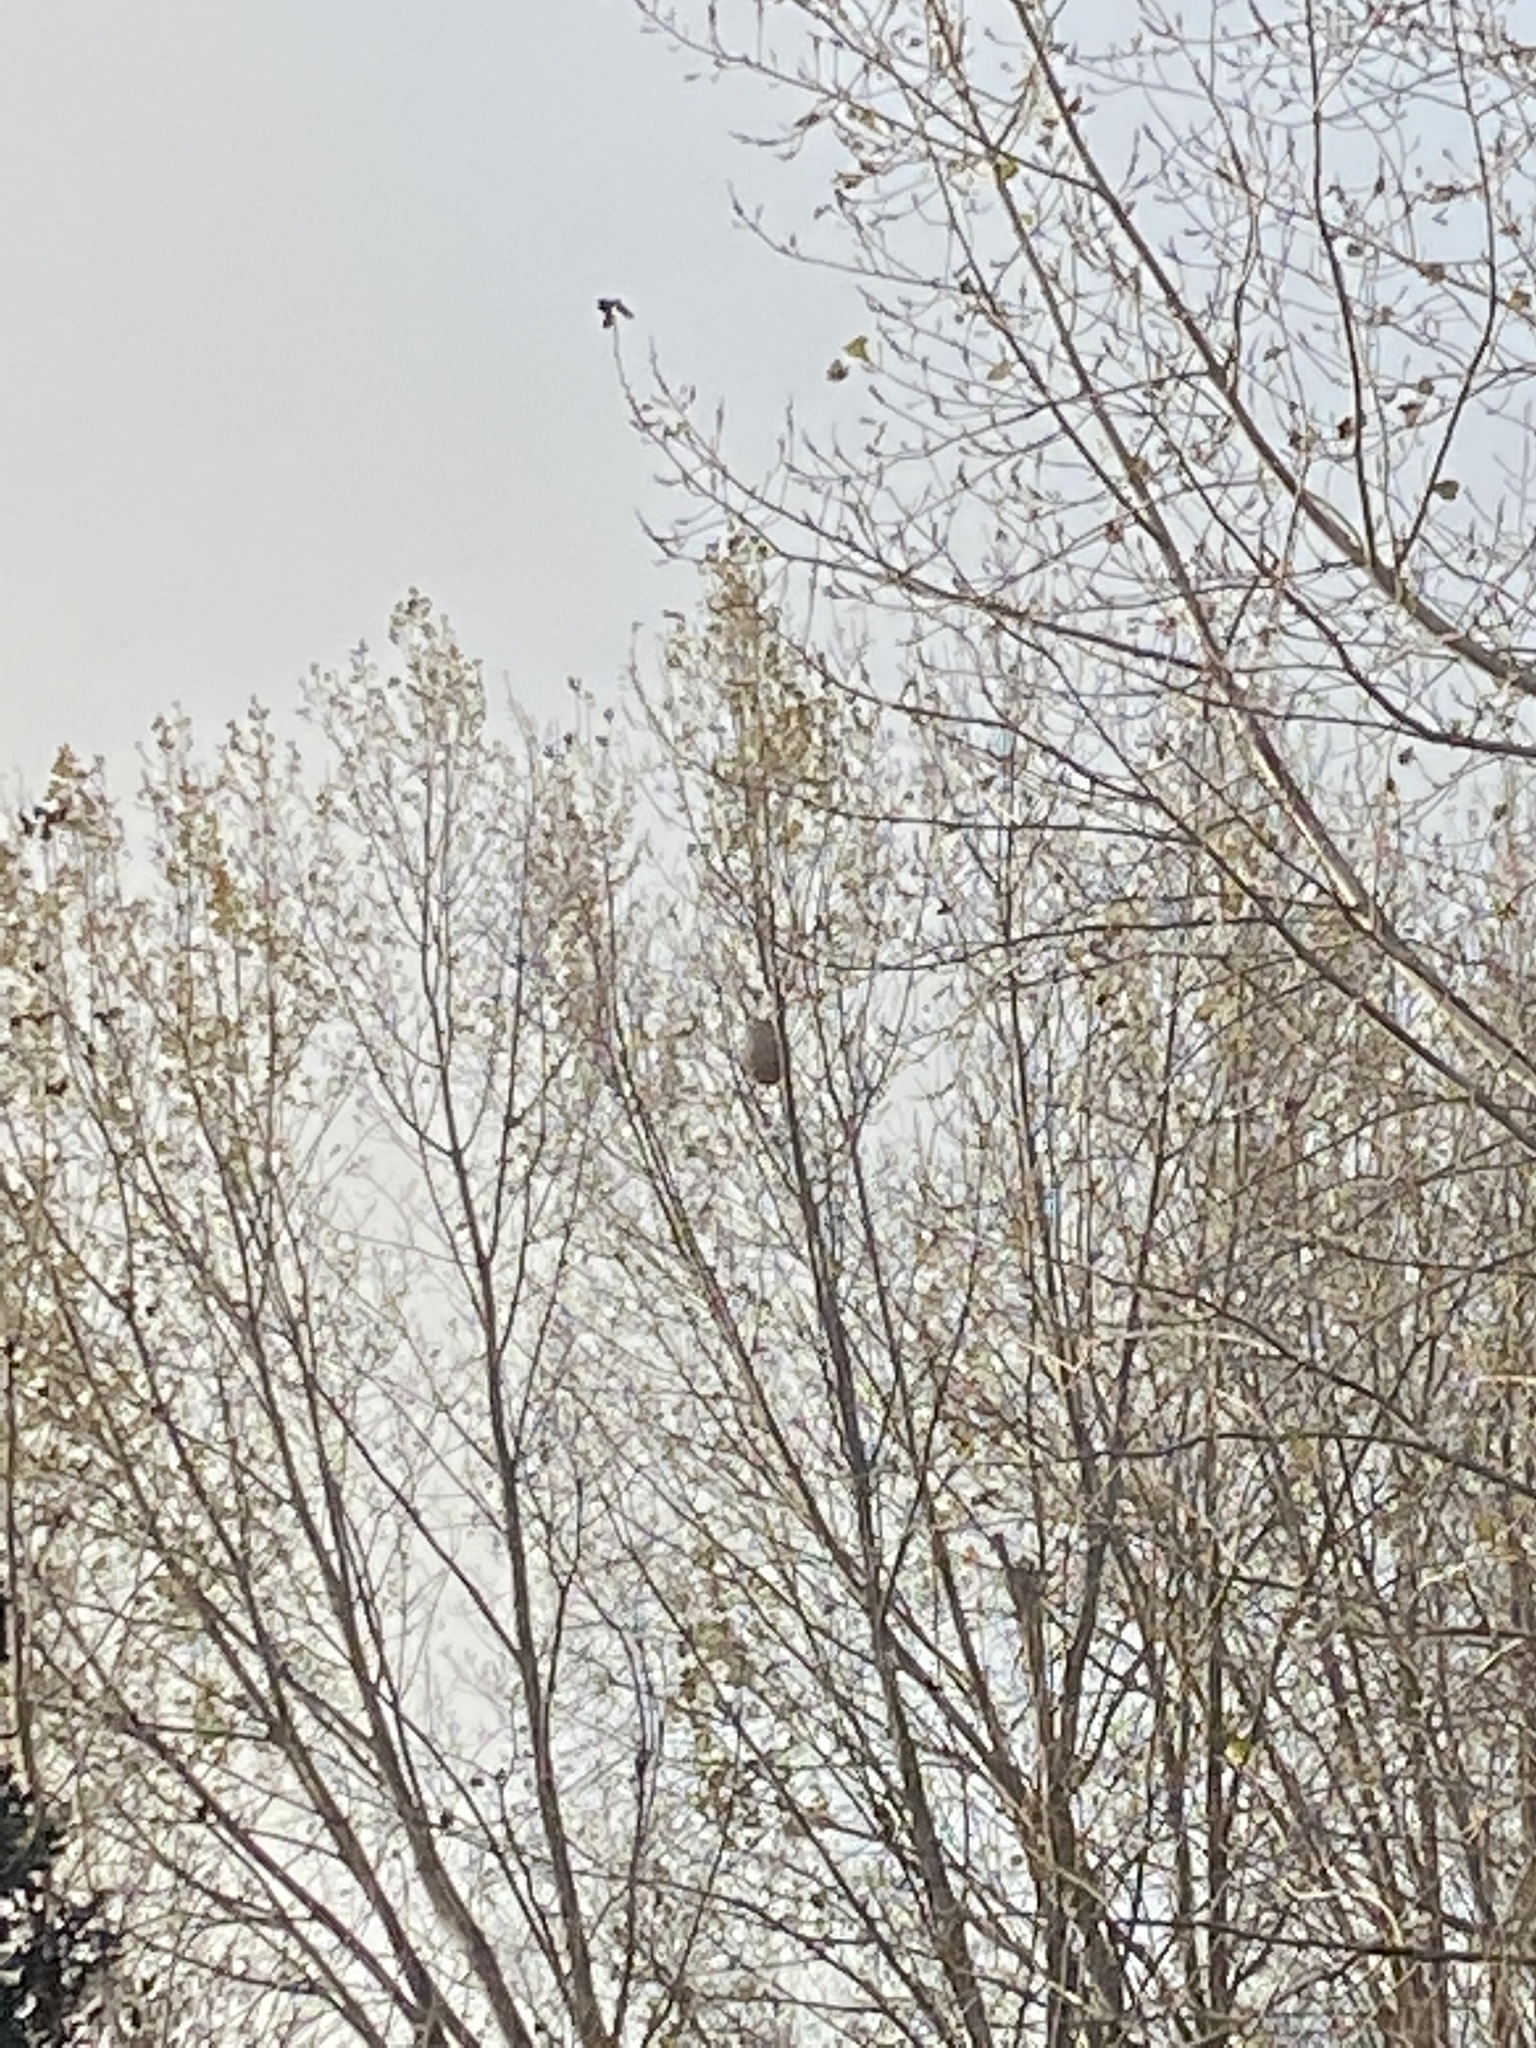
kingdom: Animalia
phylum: Arthropoda
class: Insecta
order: Hymenoptera
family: Vespidae
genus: Vespa
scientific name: Vespa velutina
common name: Asian hornet
